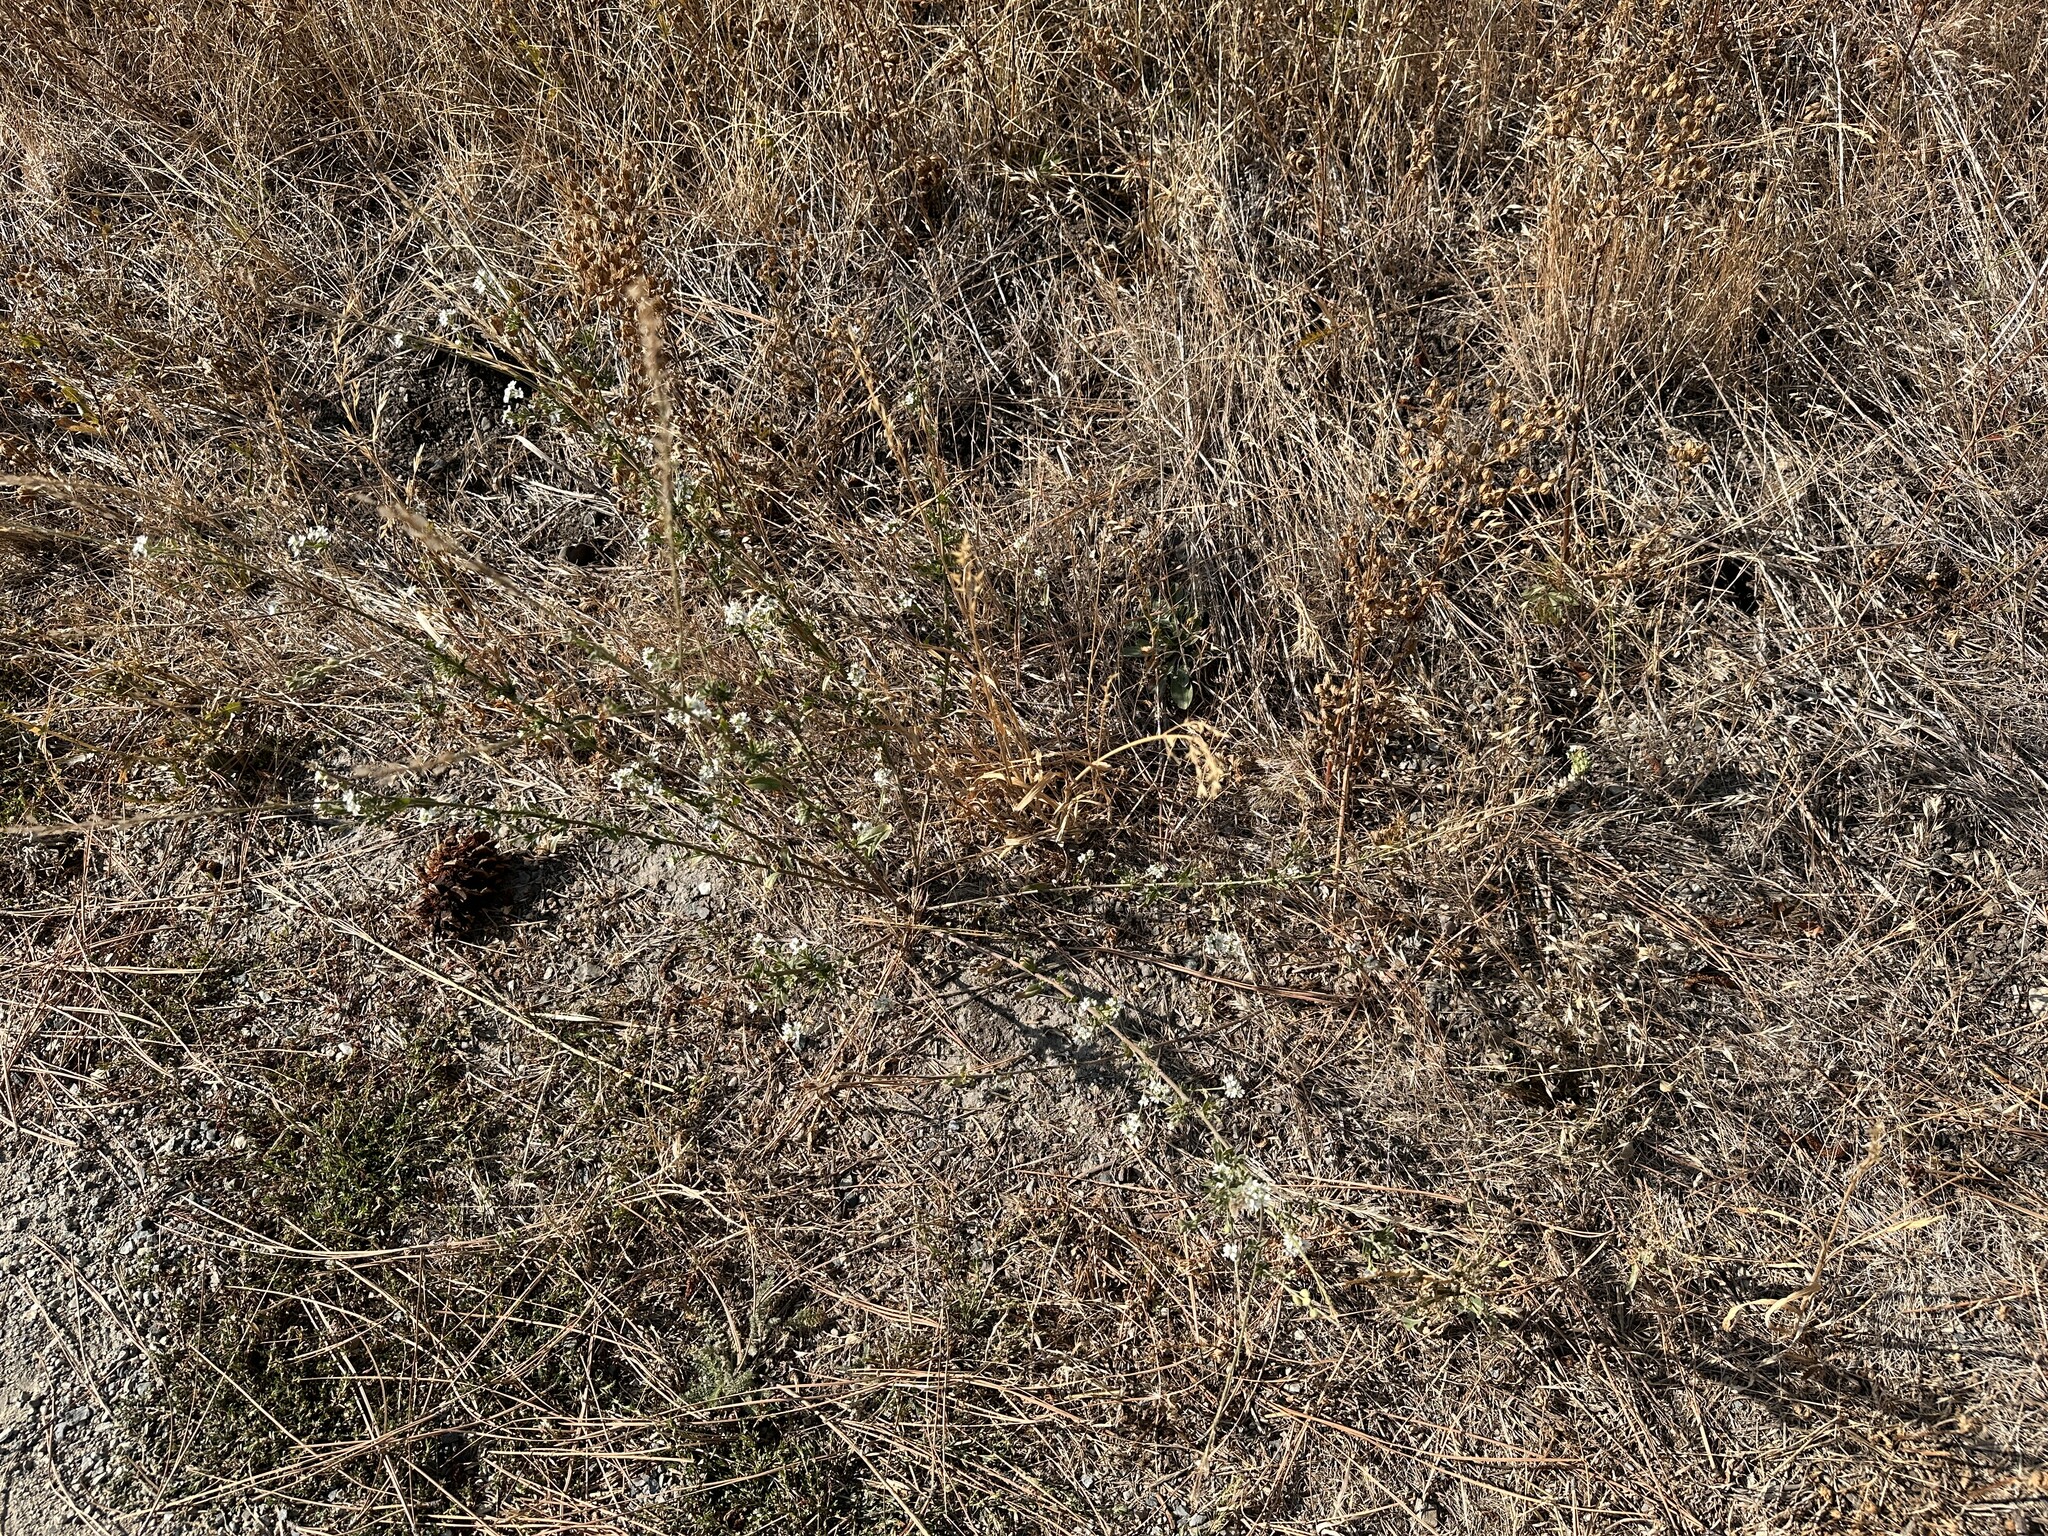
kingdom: Plantae
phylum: Tracheophyta
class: Magnoliopsida
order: Brassicales
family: Brassicaceae
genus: Berteroa
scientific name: Berteroa incana
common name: Hoary alison
